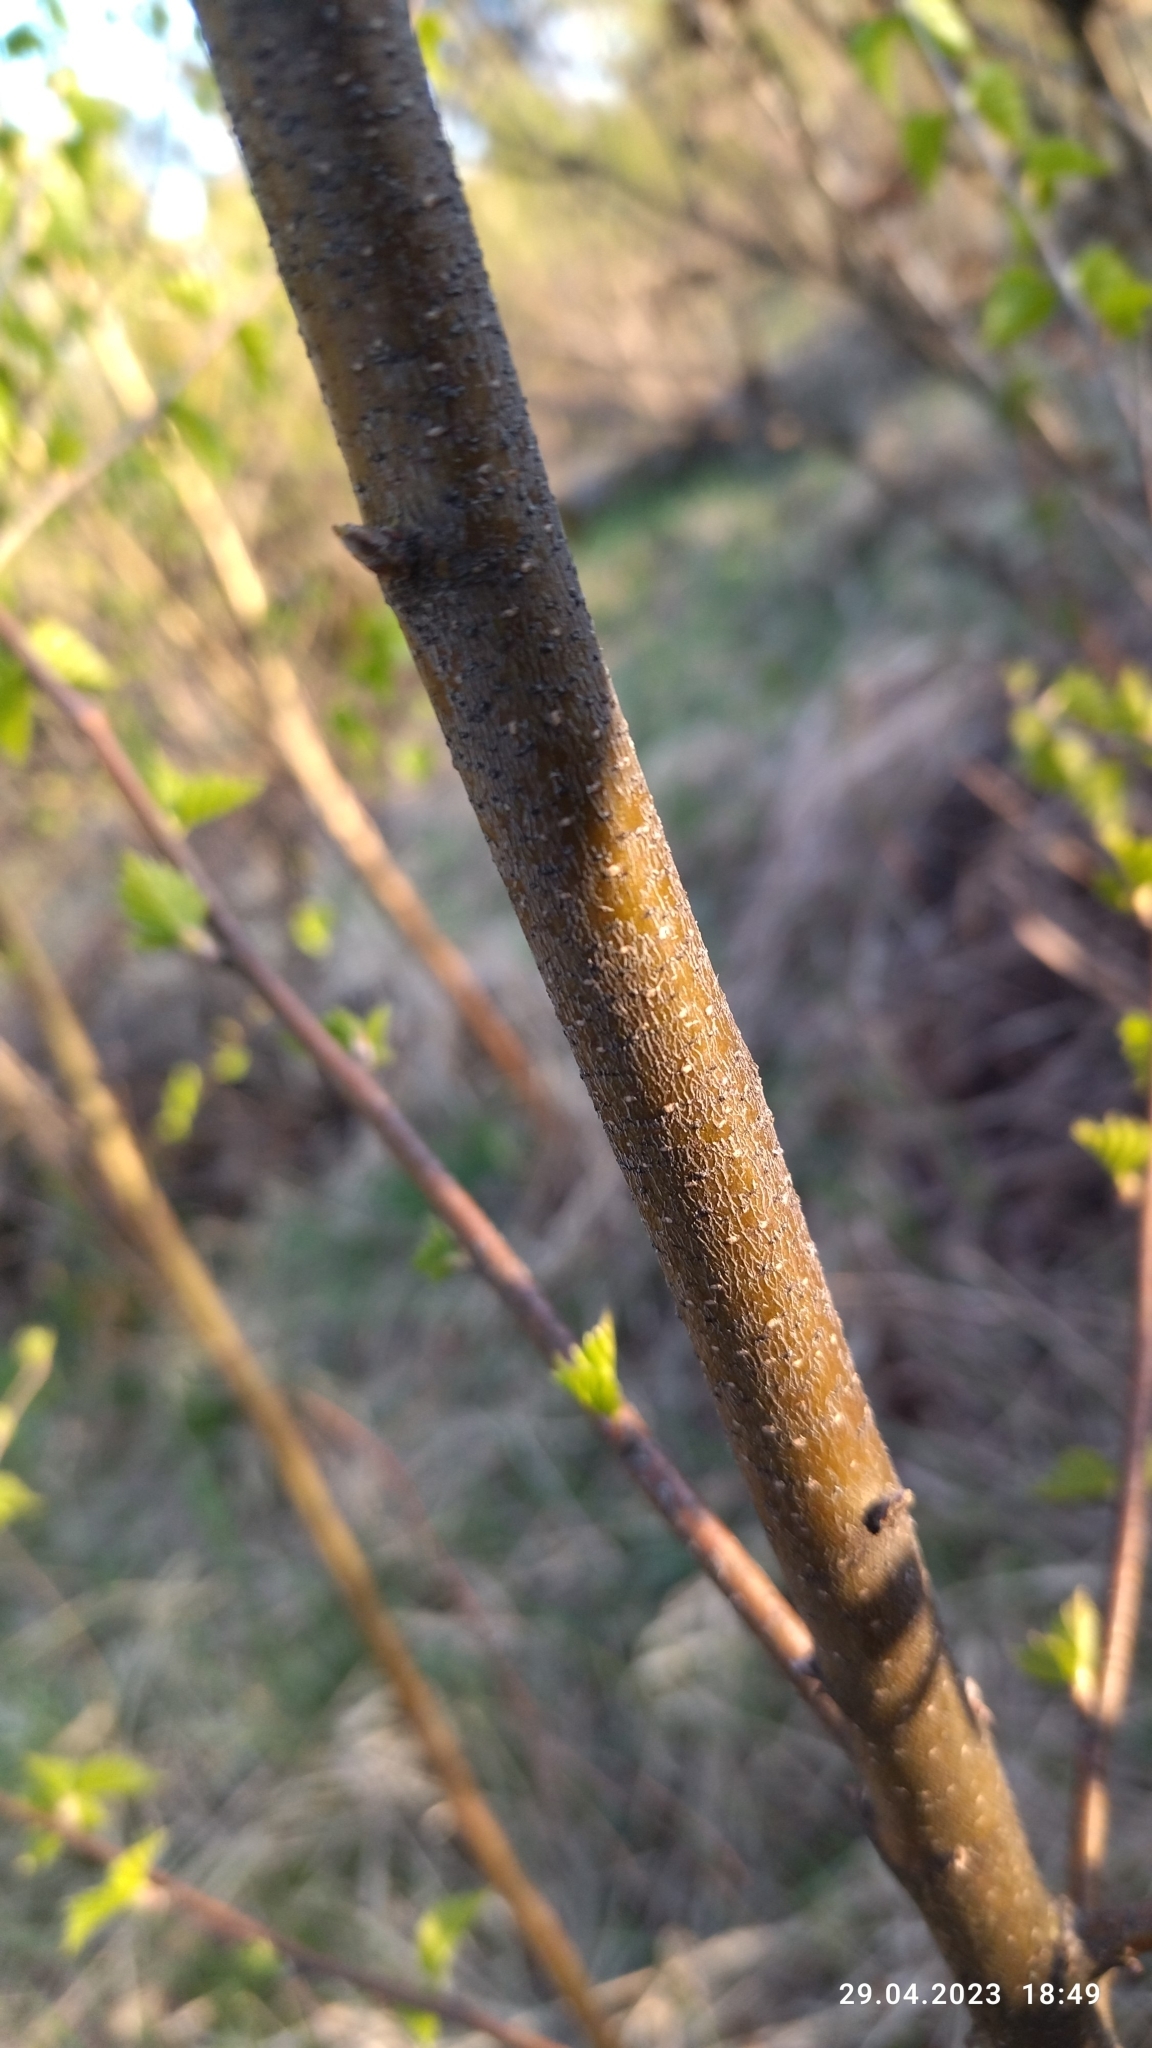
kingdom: Plantae
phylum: Tracheophyta
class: Magnoliopsida
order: Fagales
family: Betulaceae
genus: Betula
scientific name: Betula pendula
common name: Silver birch
